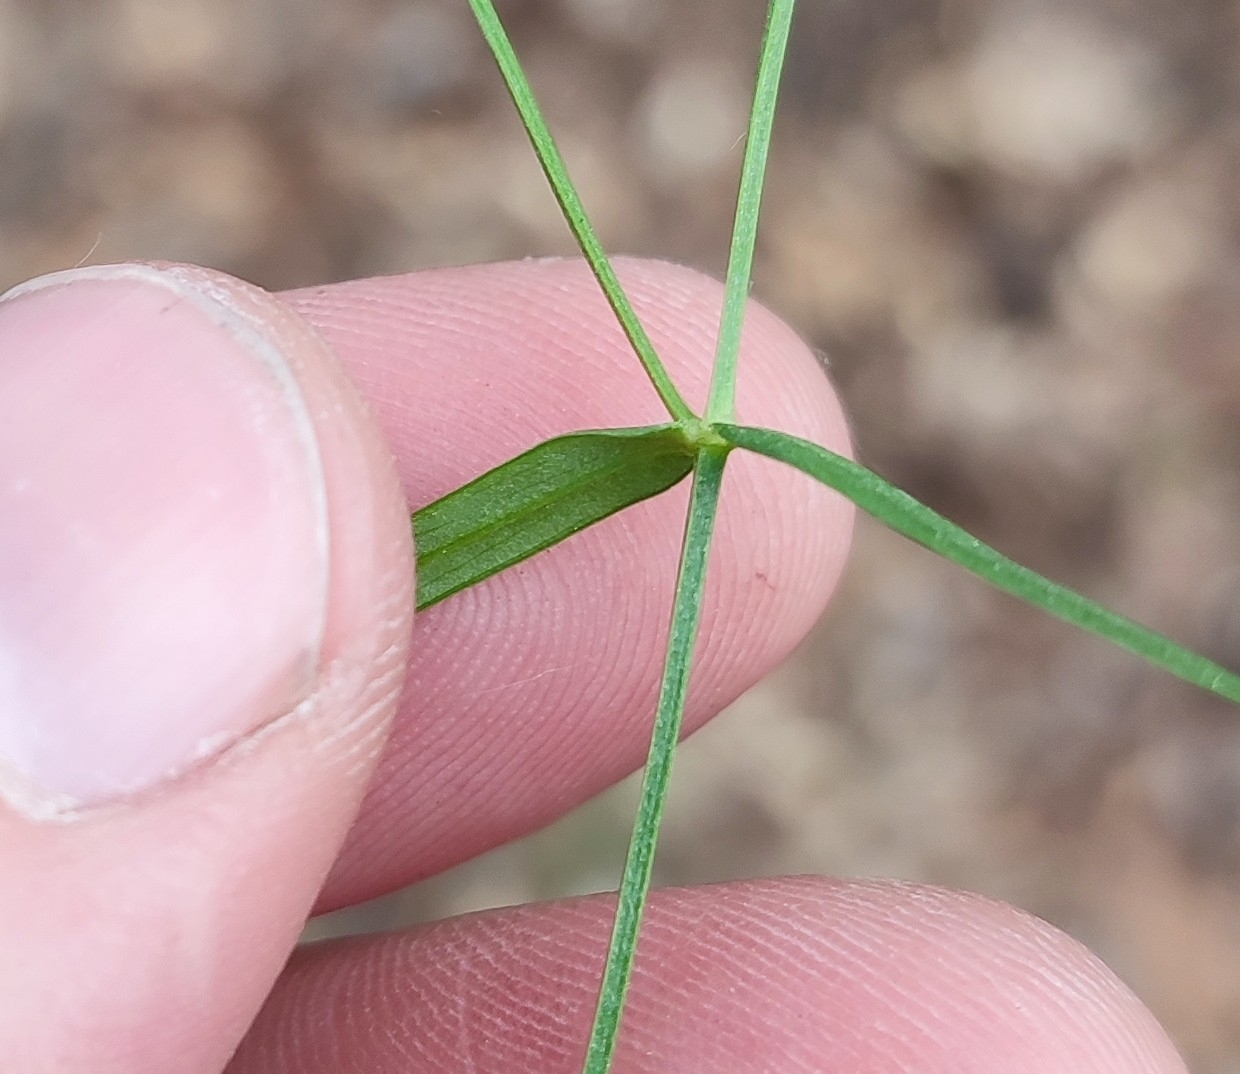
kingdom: Plantae
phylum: Tracheophyta
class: Magnoliopsida
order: Caryophyllales
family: Caryophyllaceae
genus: Stellaria
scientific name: Stellaria graminea
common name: Grass-like starwort
